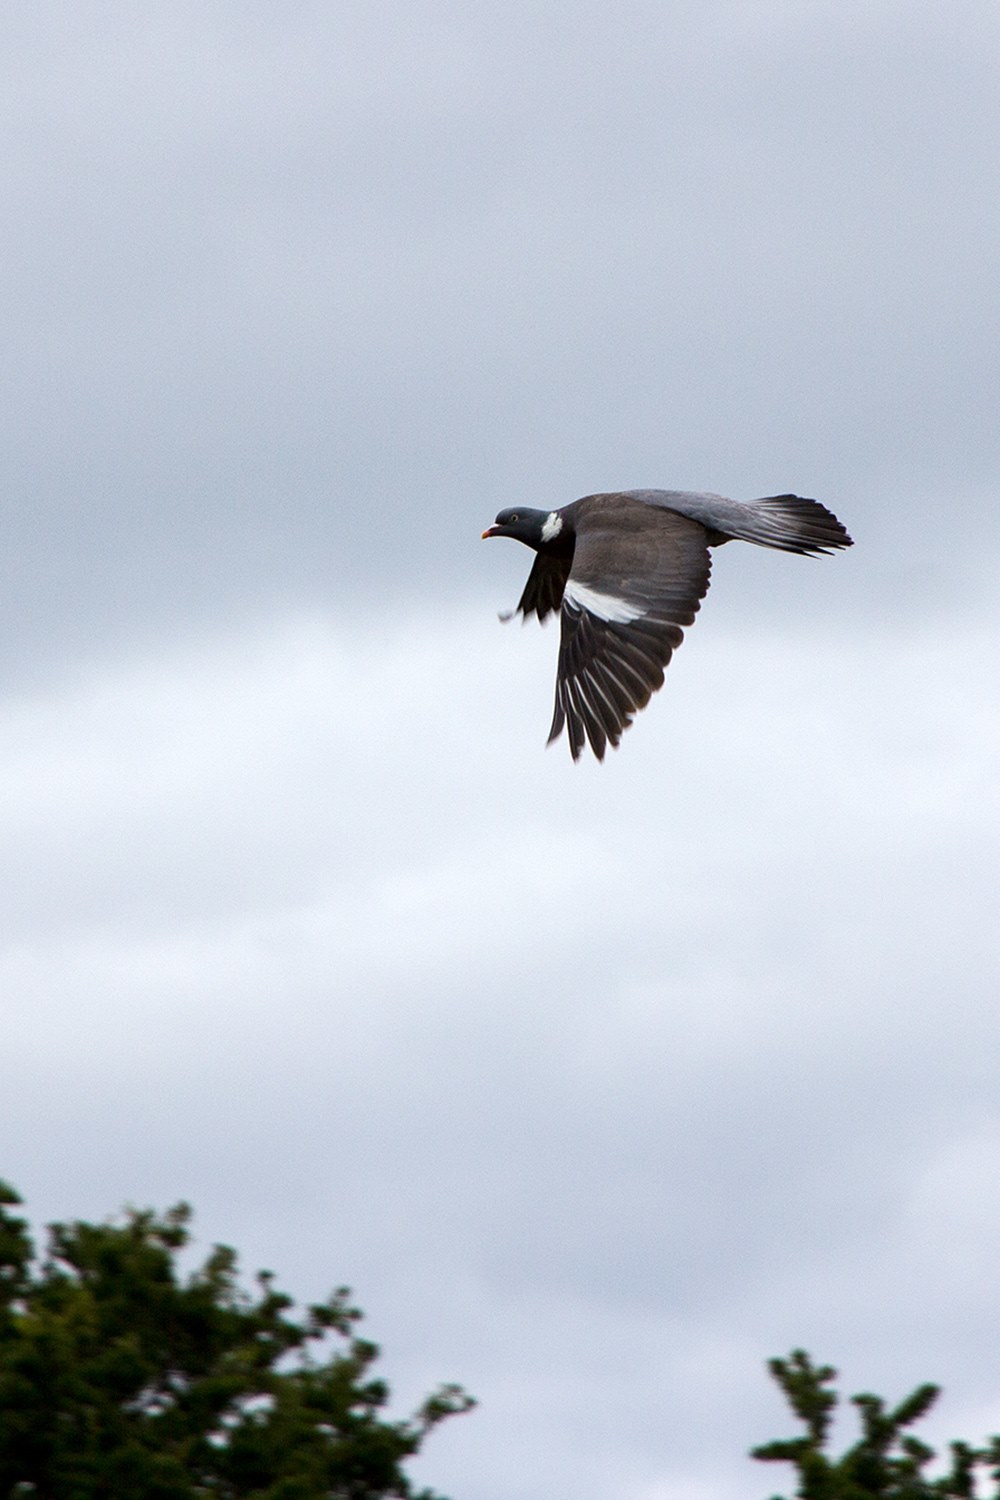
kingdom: Animalia
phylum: Chordata
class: Aves
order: Columbiformes
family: Columbidae
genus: Columba
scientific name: Columba palumbus
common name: Common wood pigeon
